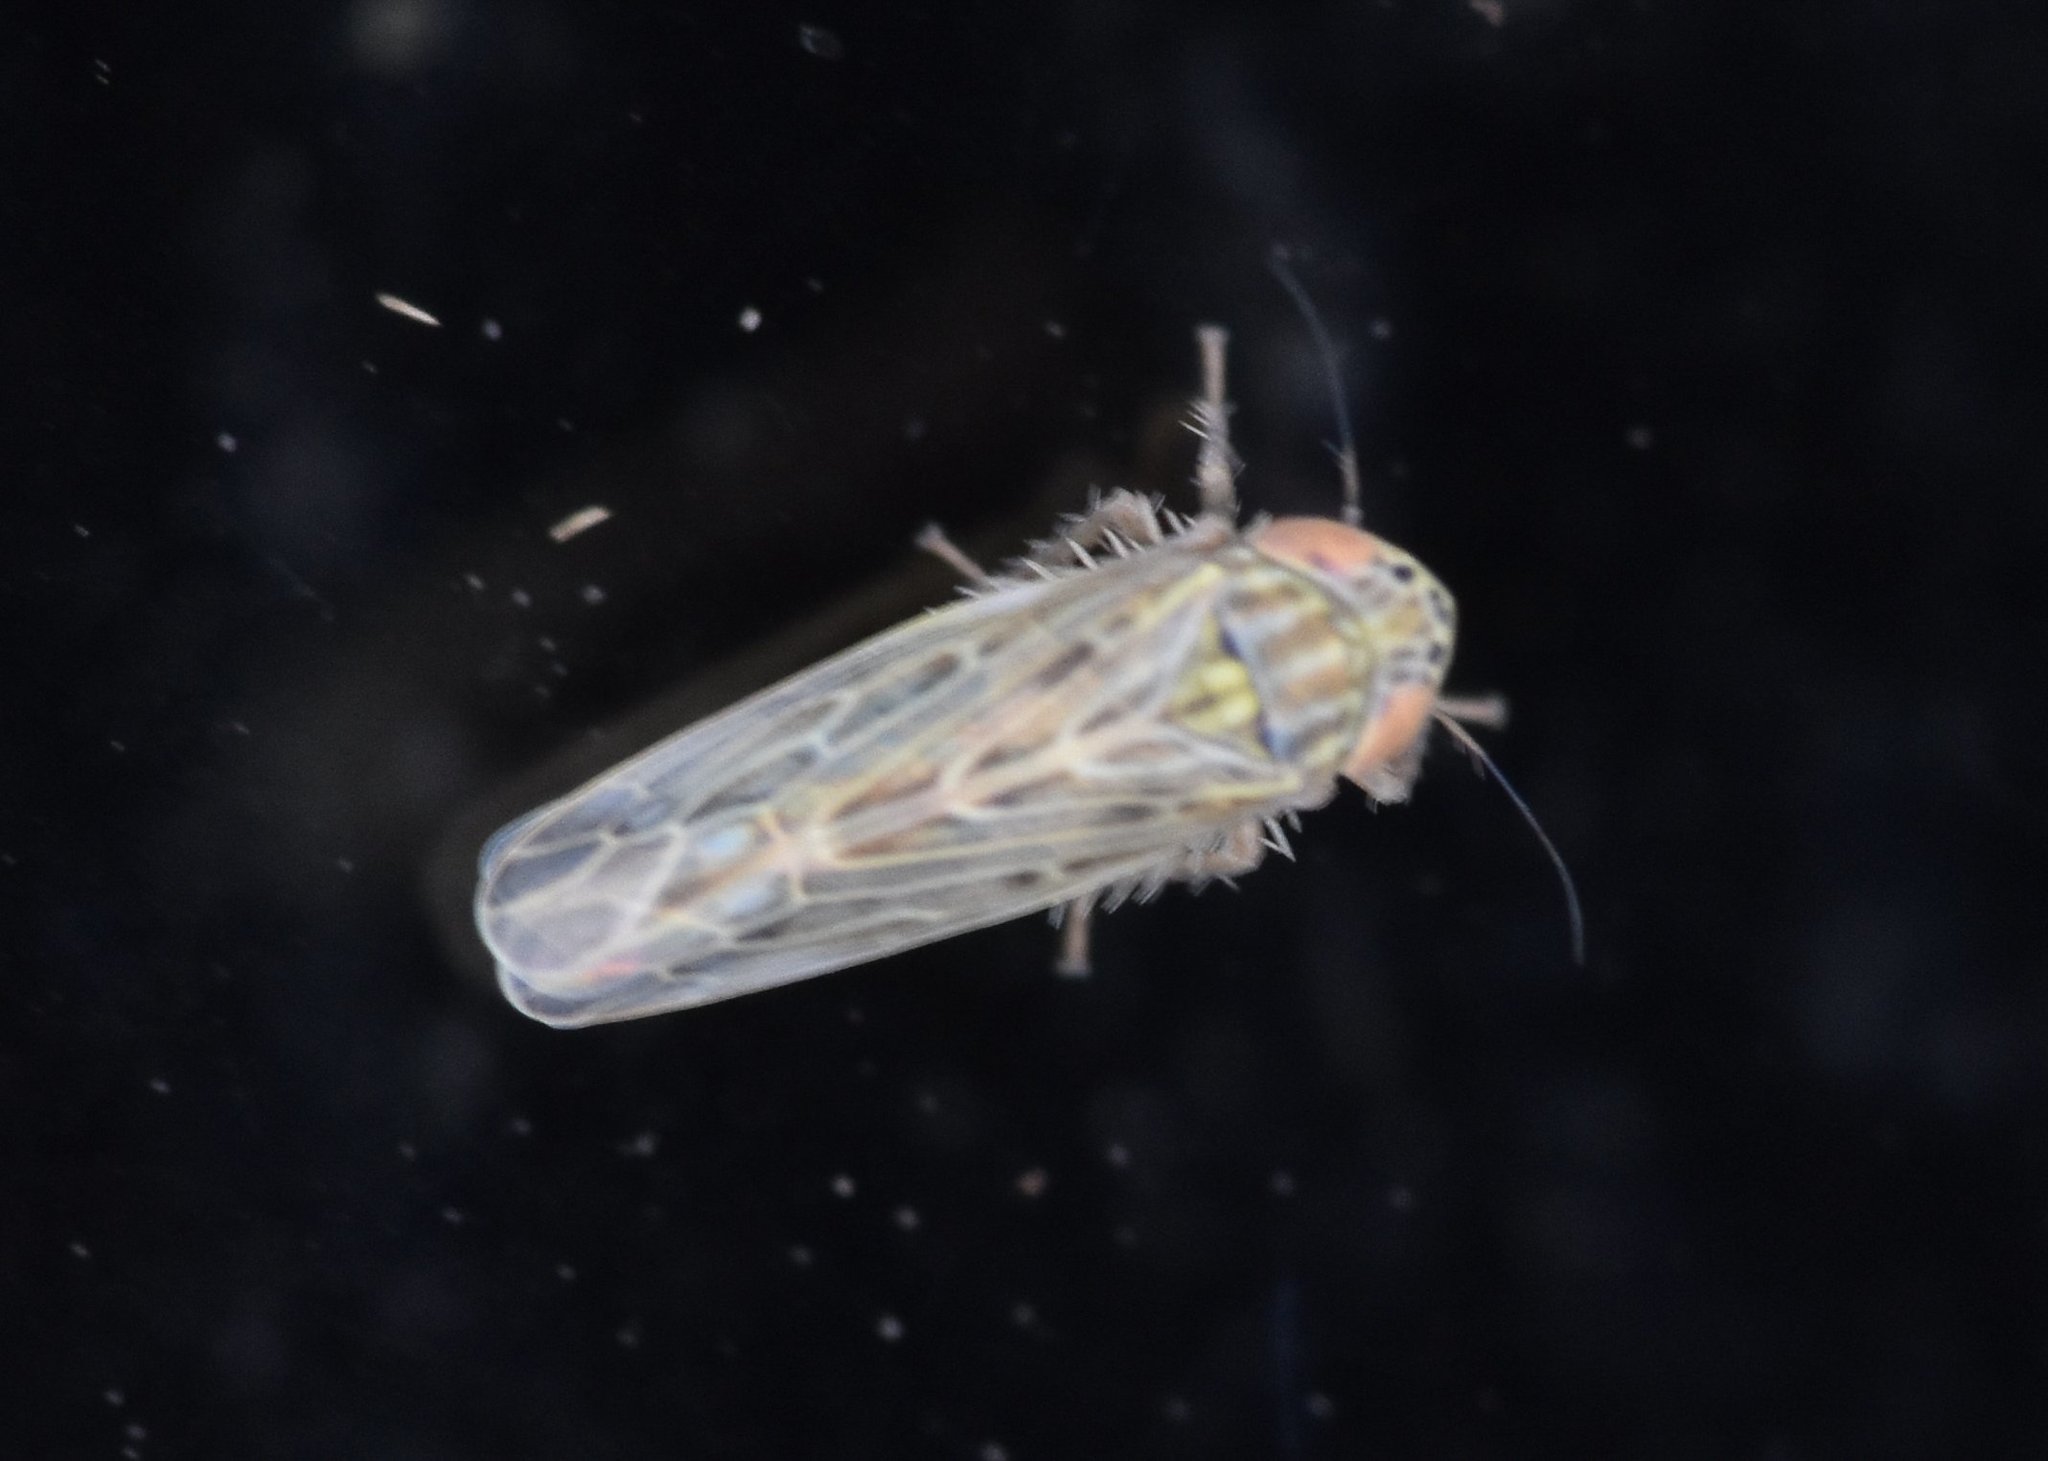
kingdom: Animalia
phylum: Arthropoda
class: Insecta
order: Hemiptera
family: Cicadellidae
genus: Graminella
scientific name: Graminella sonora
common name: Lesser lawn leafhopper
